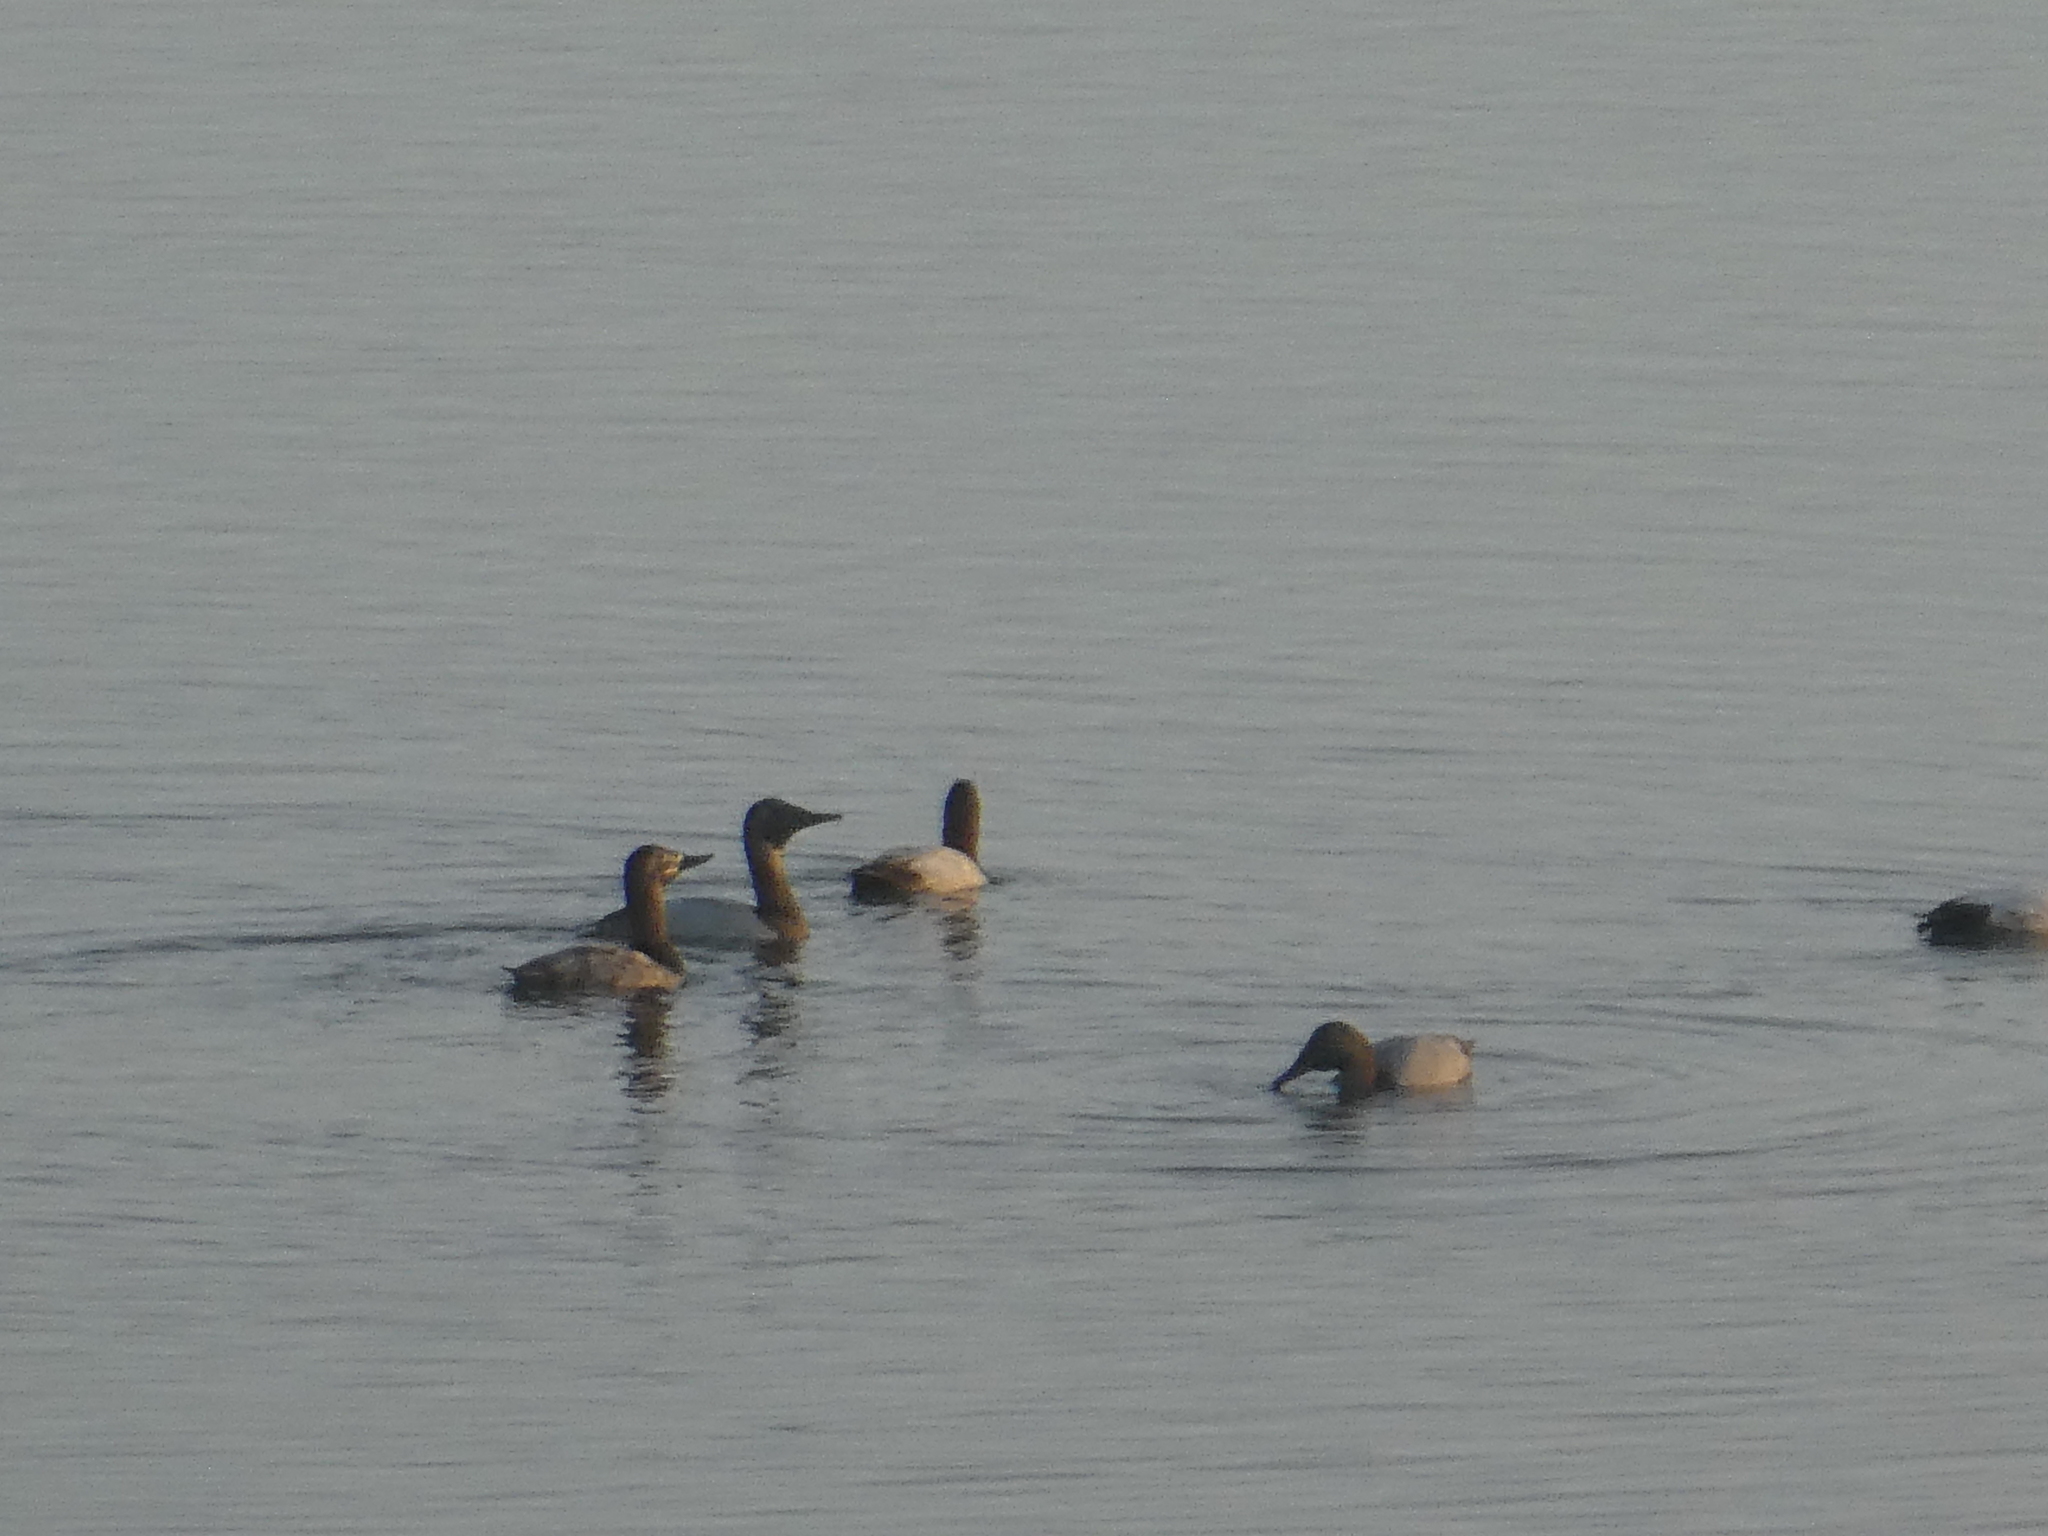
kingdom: Animalia
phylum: Chordata
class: Aves
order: Anseriformes
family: Anatidae
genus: Aythya
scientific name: Aythya valisineria
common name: Canvasback
